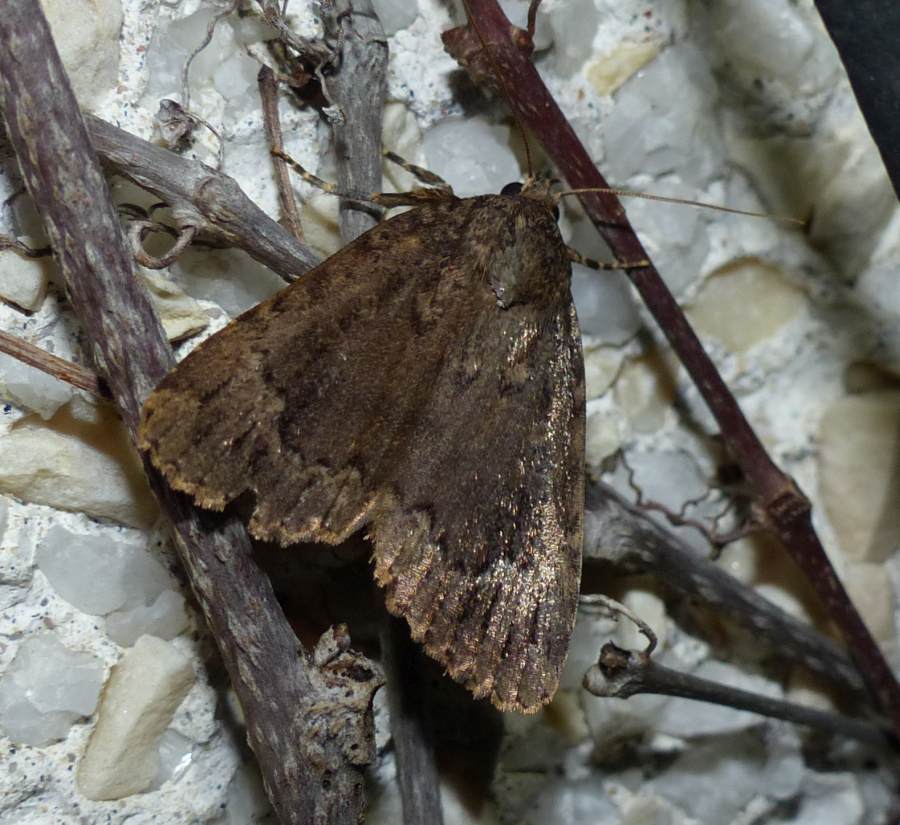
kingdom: Animalia
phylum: Arthropoda
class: Insecta
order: Lepidoptera
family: Noctuidae
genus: Amphipyra
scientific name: Amphipyra pyramidoides
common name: American copper underwing
